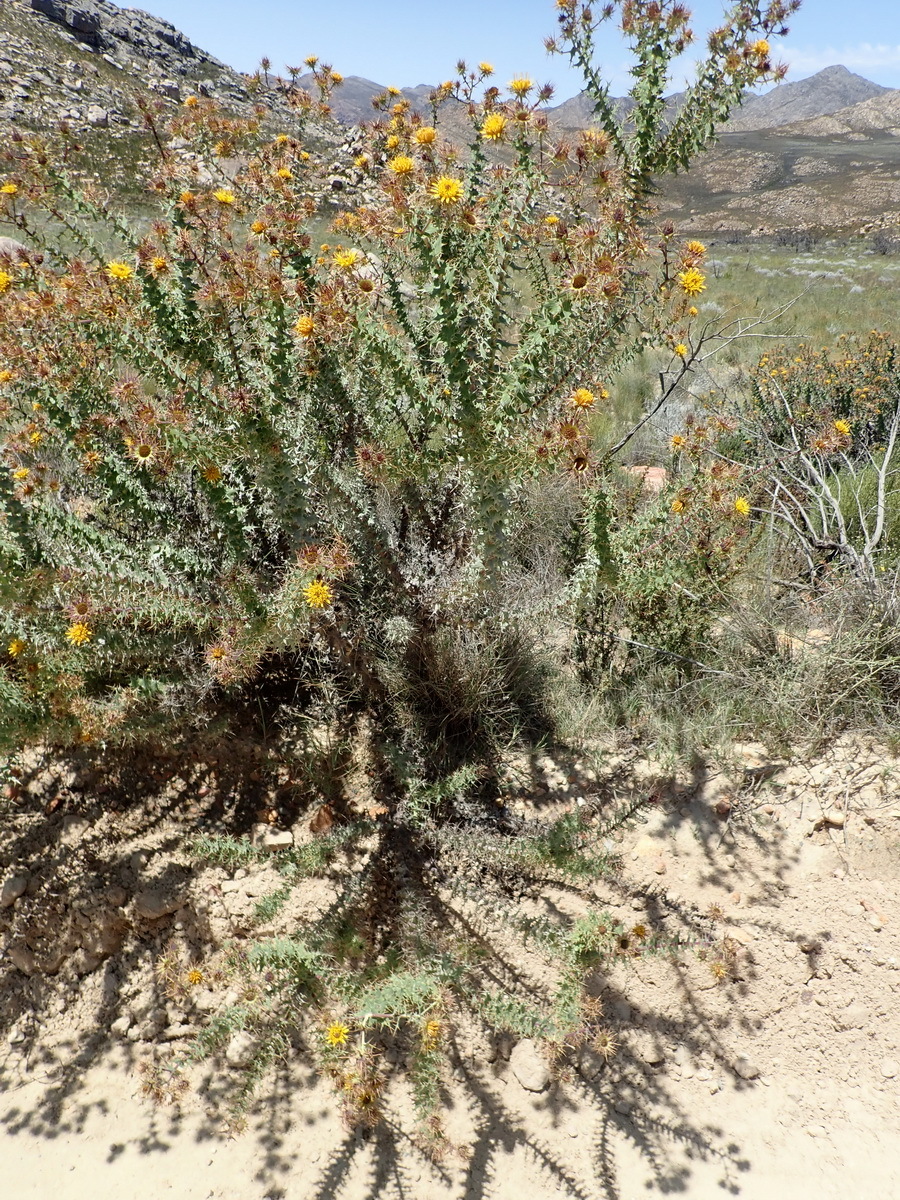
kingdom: Plantae
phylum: Tracheophyta
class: Magnoliopsida
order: Asterales
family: Asteraceae
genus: Berkheya
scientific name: Berkheya cruciata
